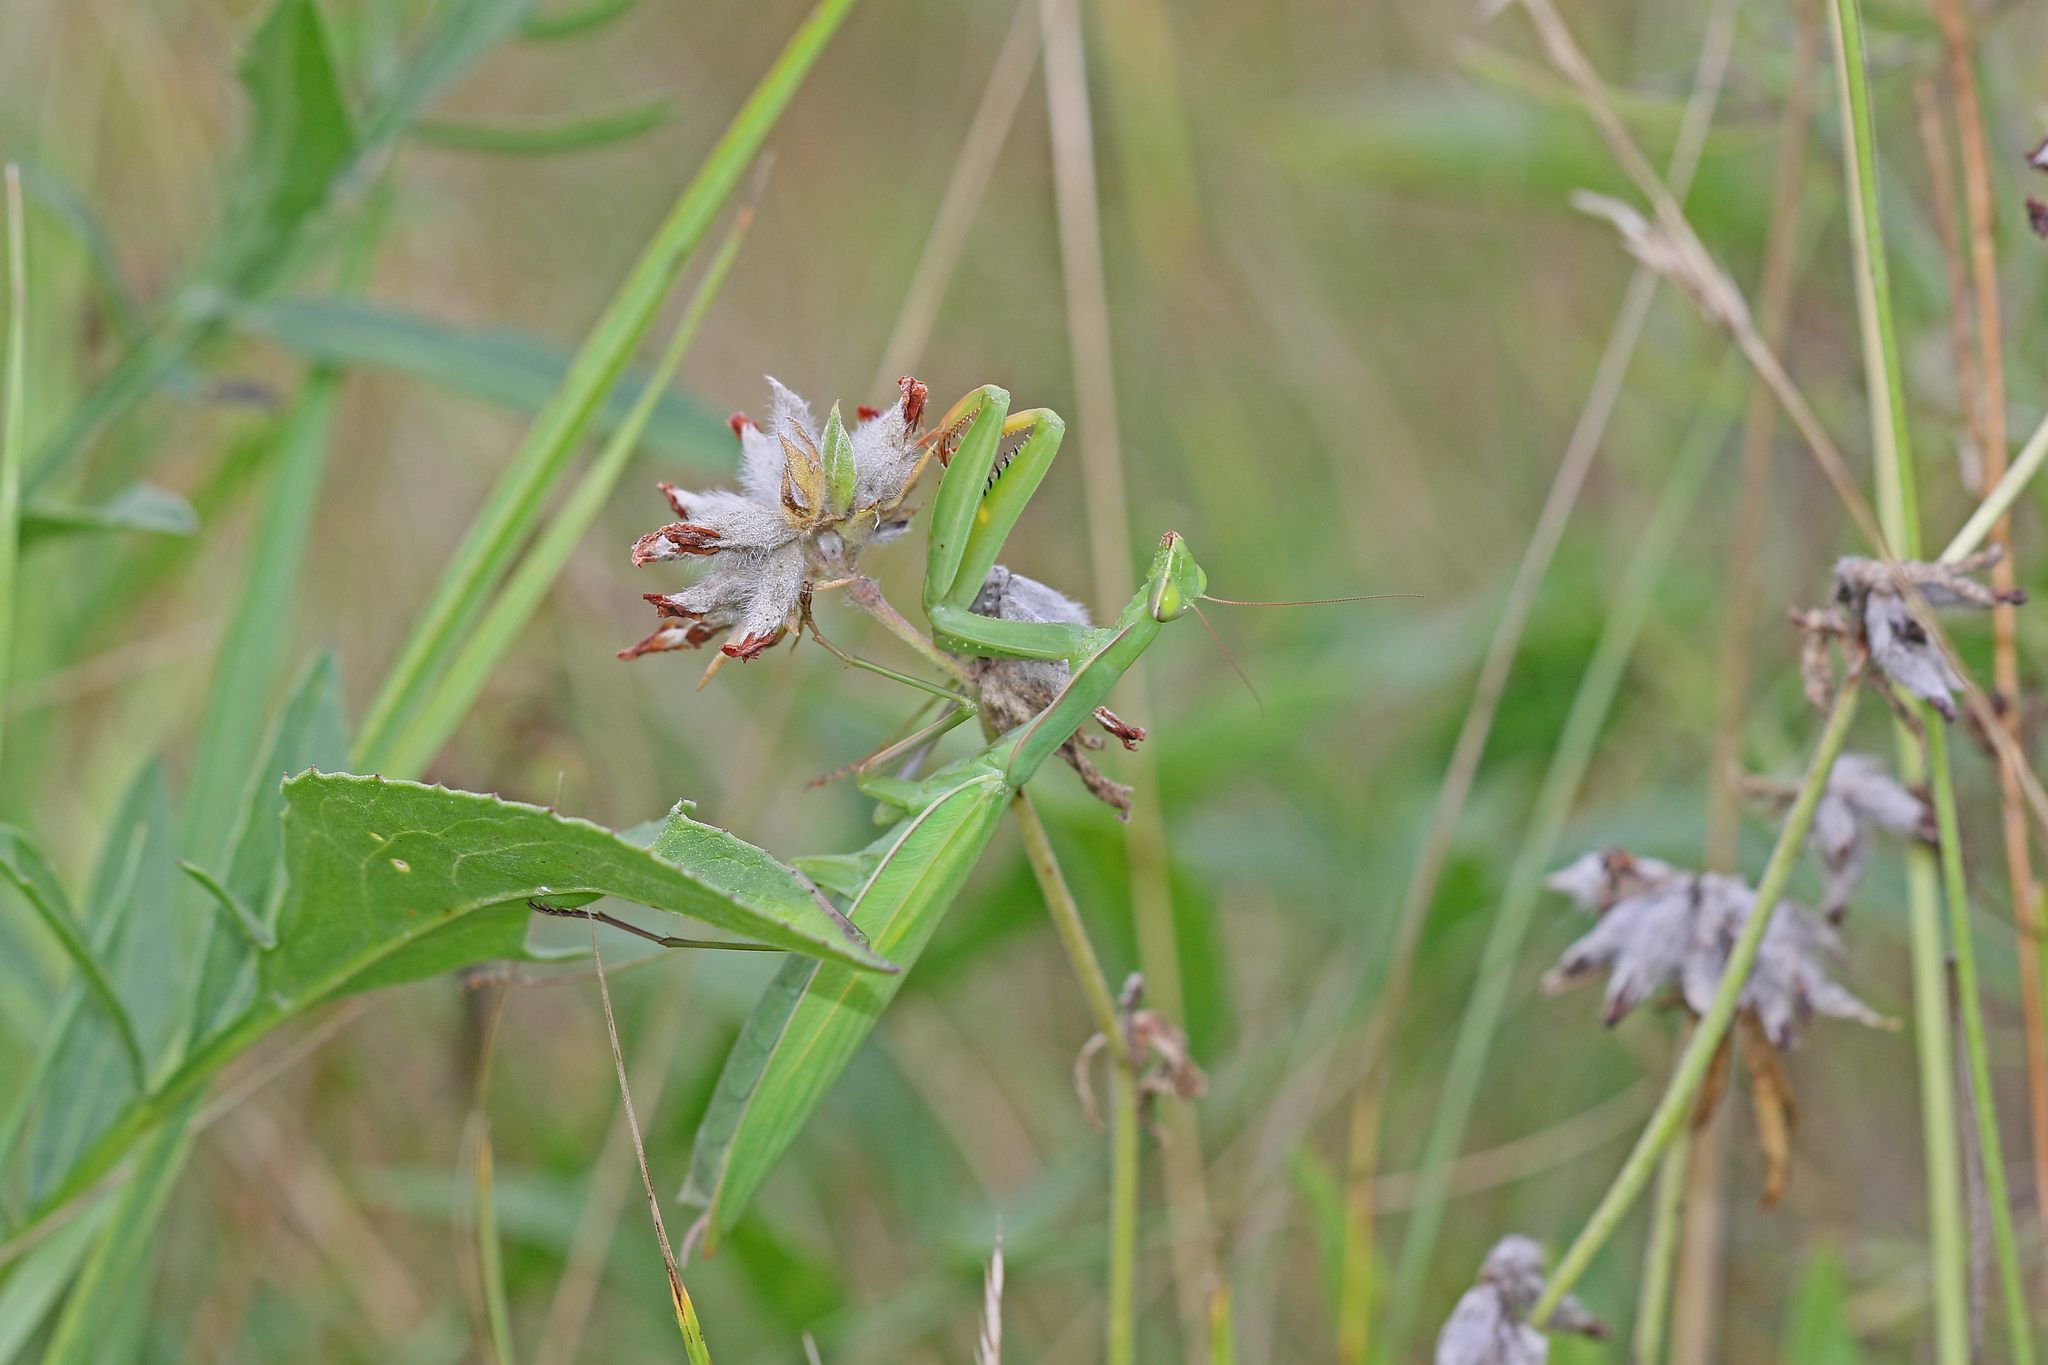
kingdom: Animalia
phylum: Arthropoda
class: Insecta
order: Mantodea
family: Mantidae
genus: Mantis
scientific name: Mantis religiosa
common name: Praying mantis
